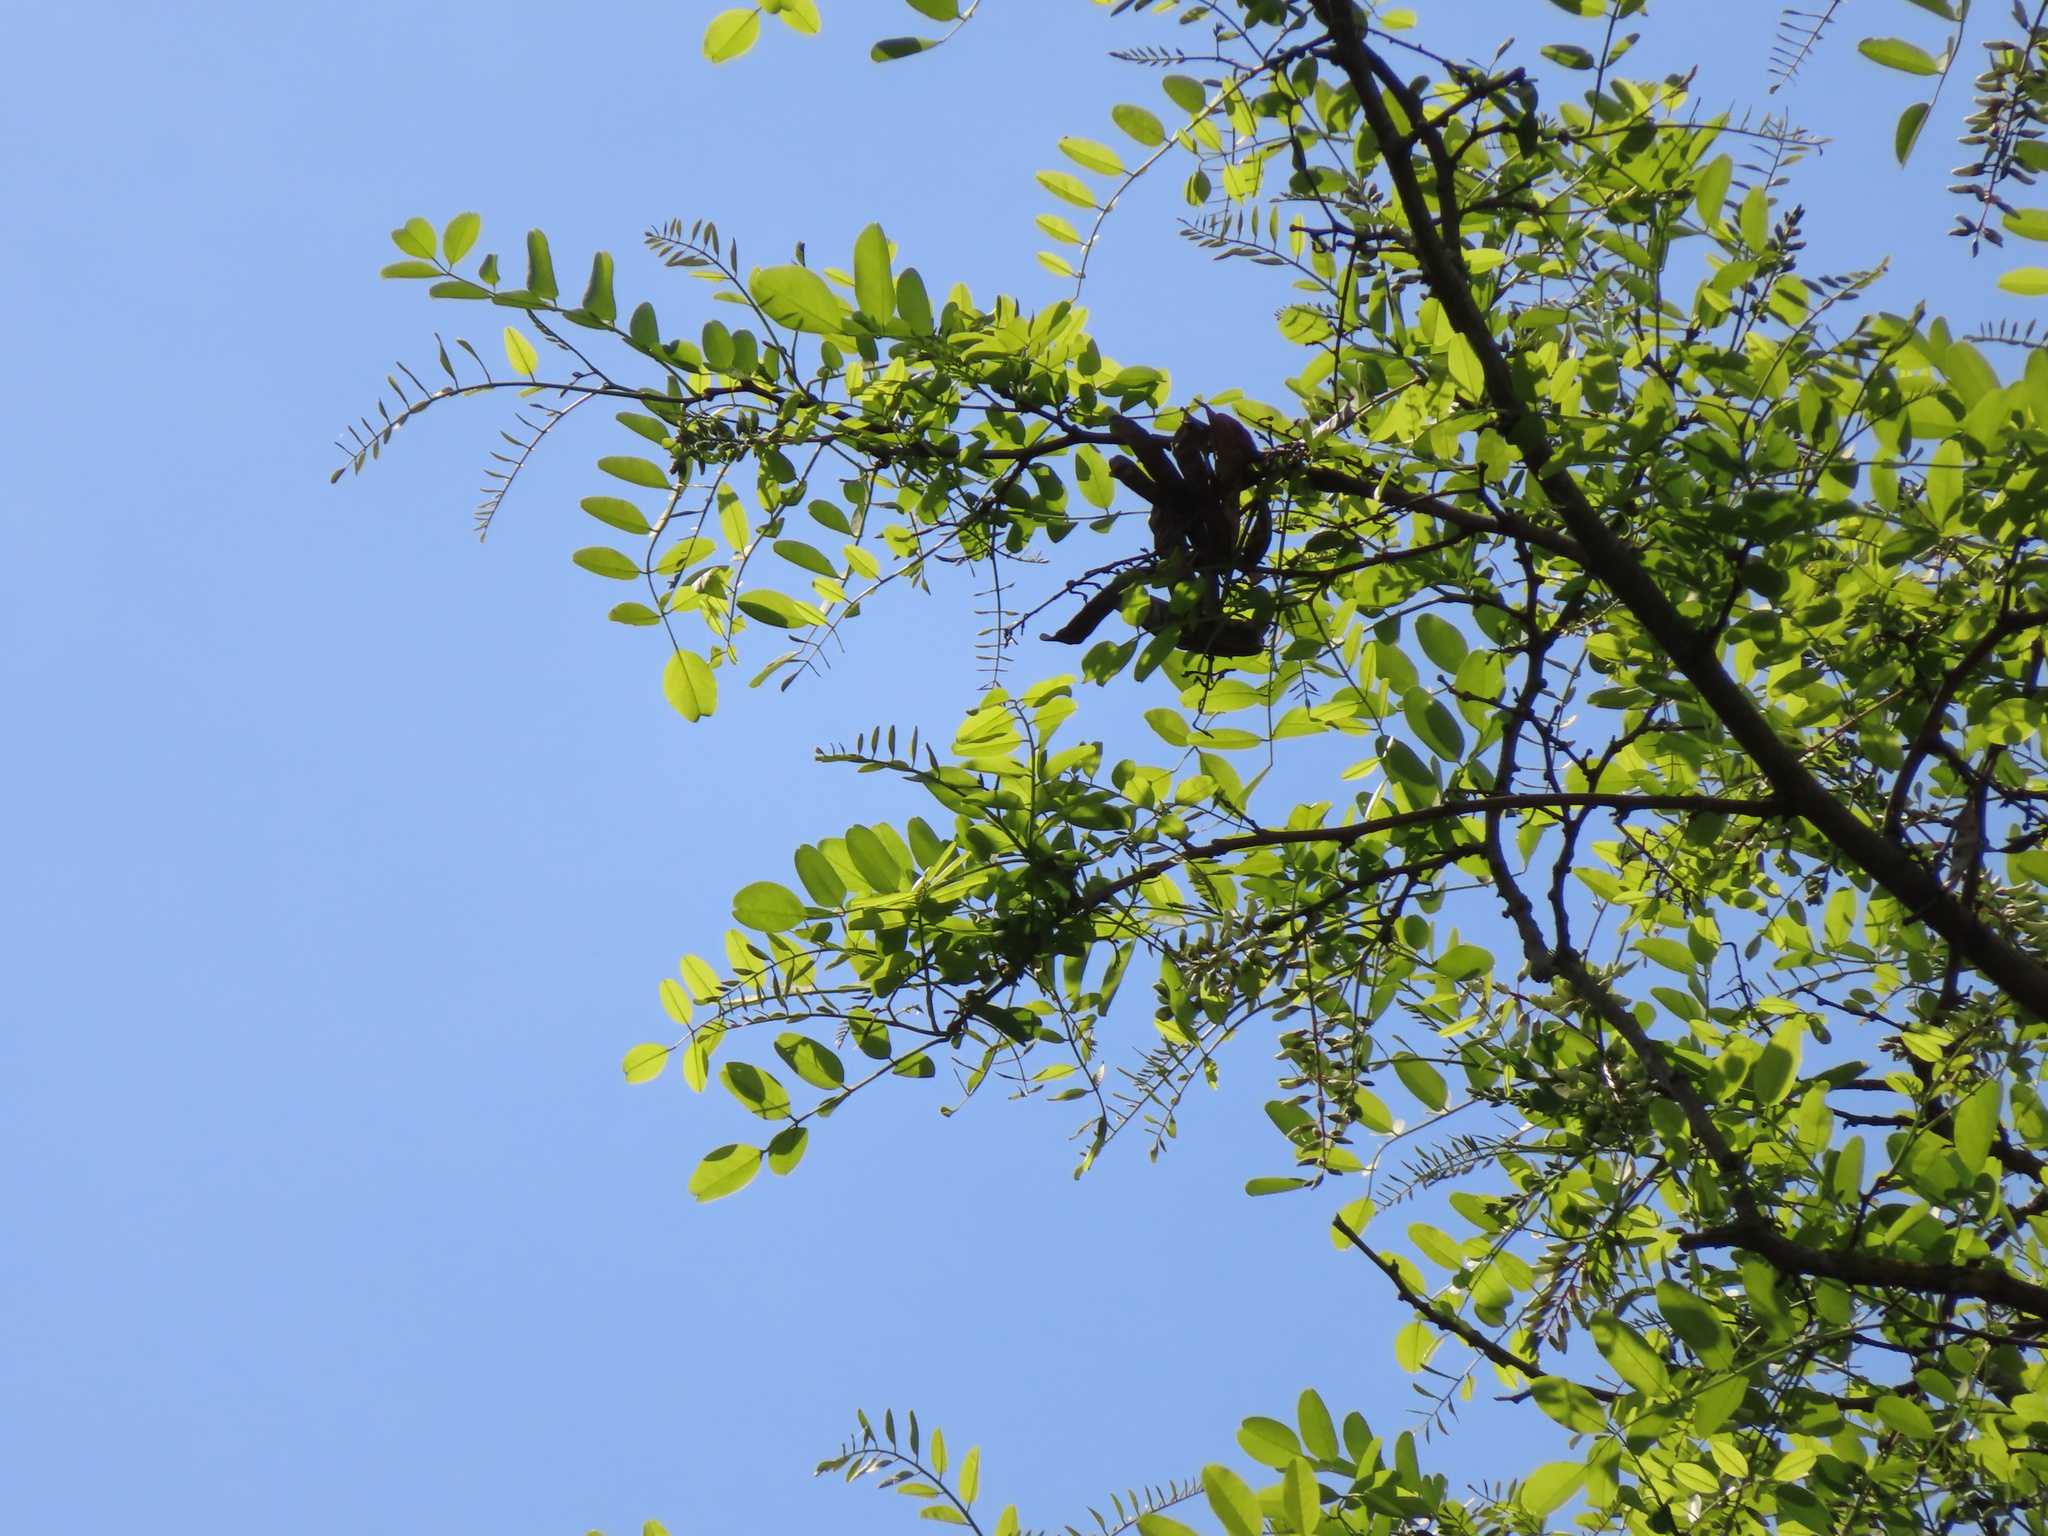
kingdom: Plantae
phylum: Tracheophyta
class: Magnoliopsida
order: Fabales
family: Fabaceae
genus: Robinia
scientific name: Robinia pseudoacacia
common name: Black locust
